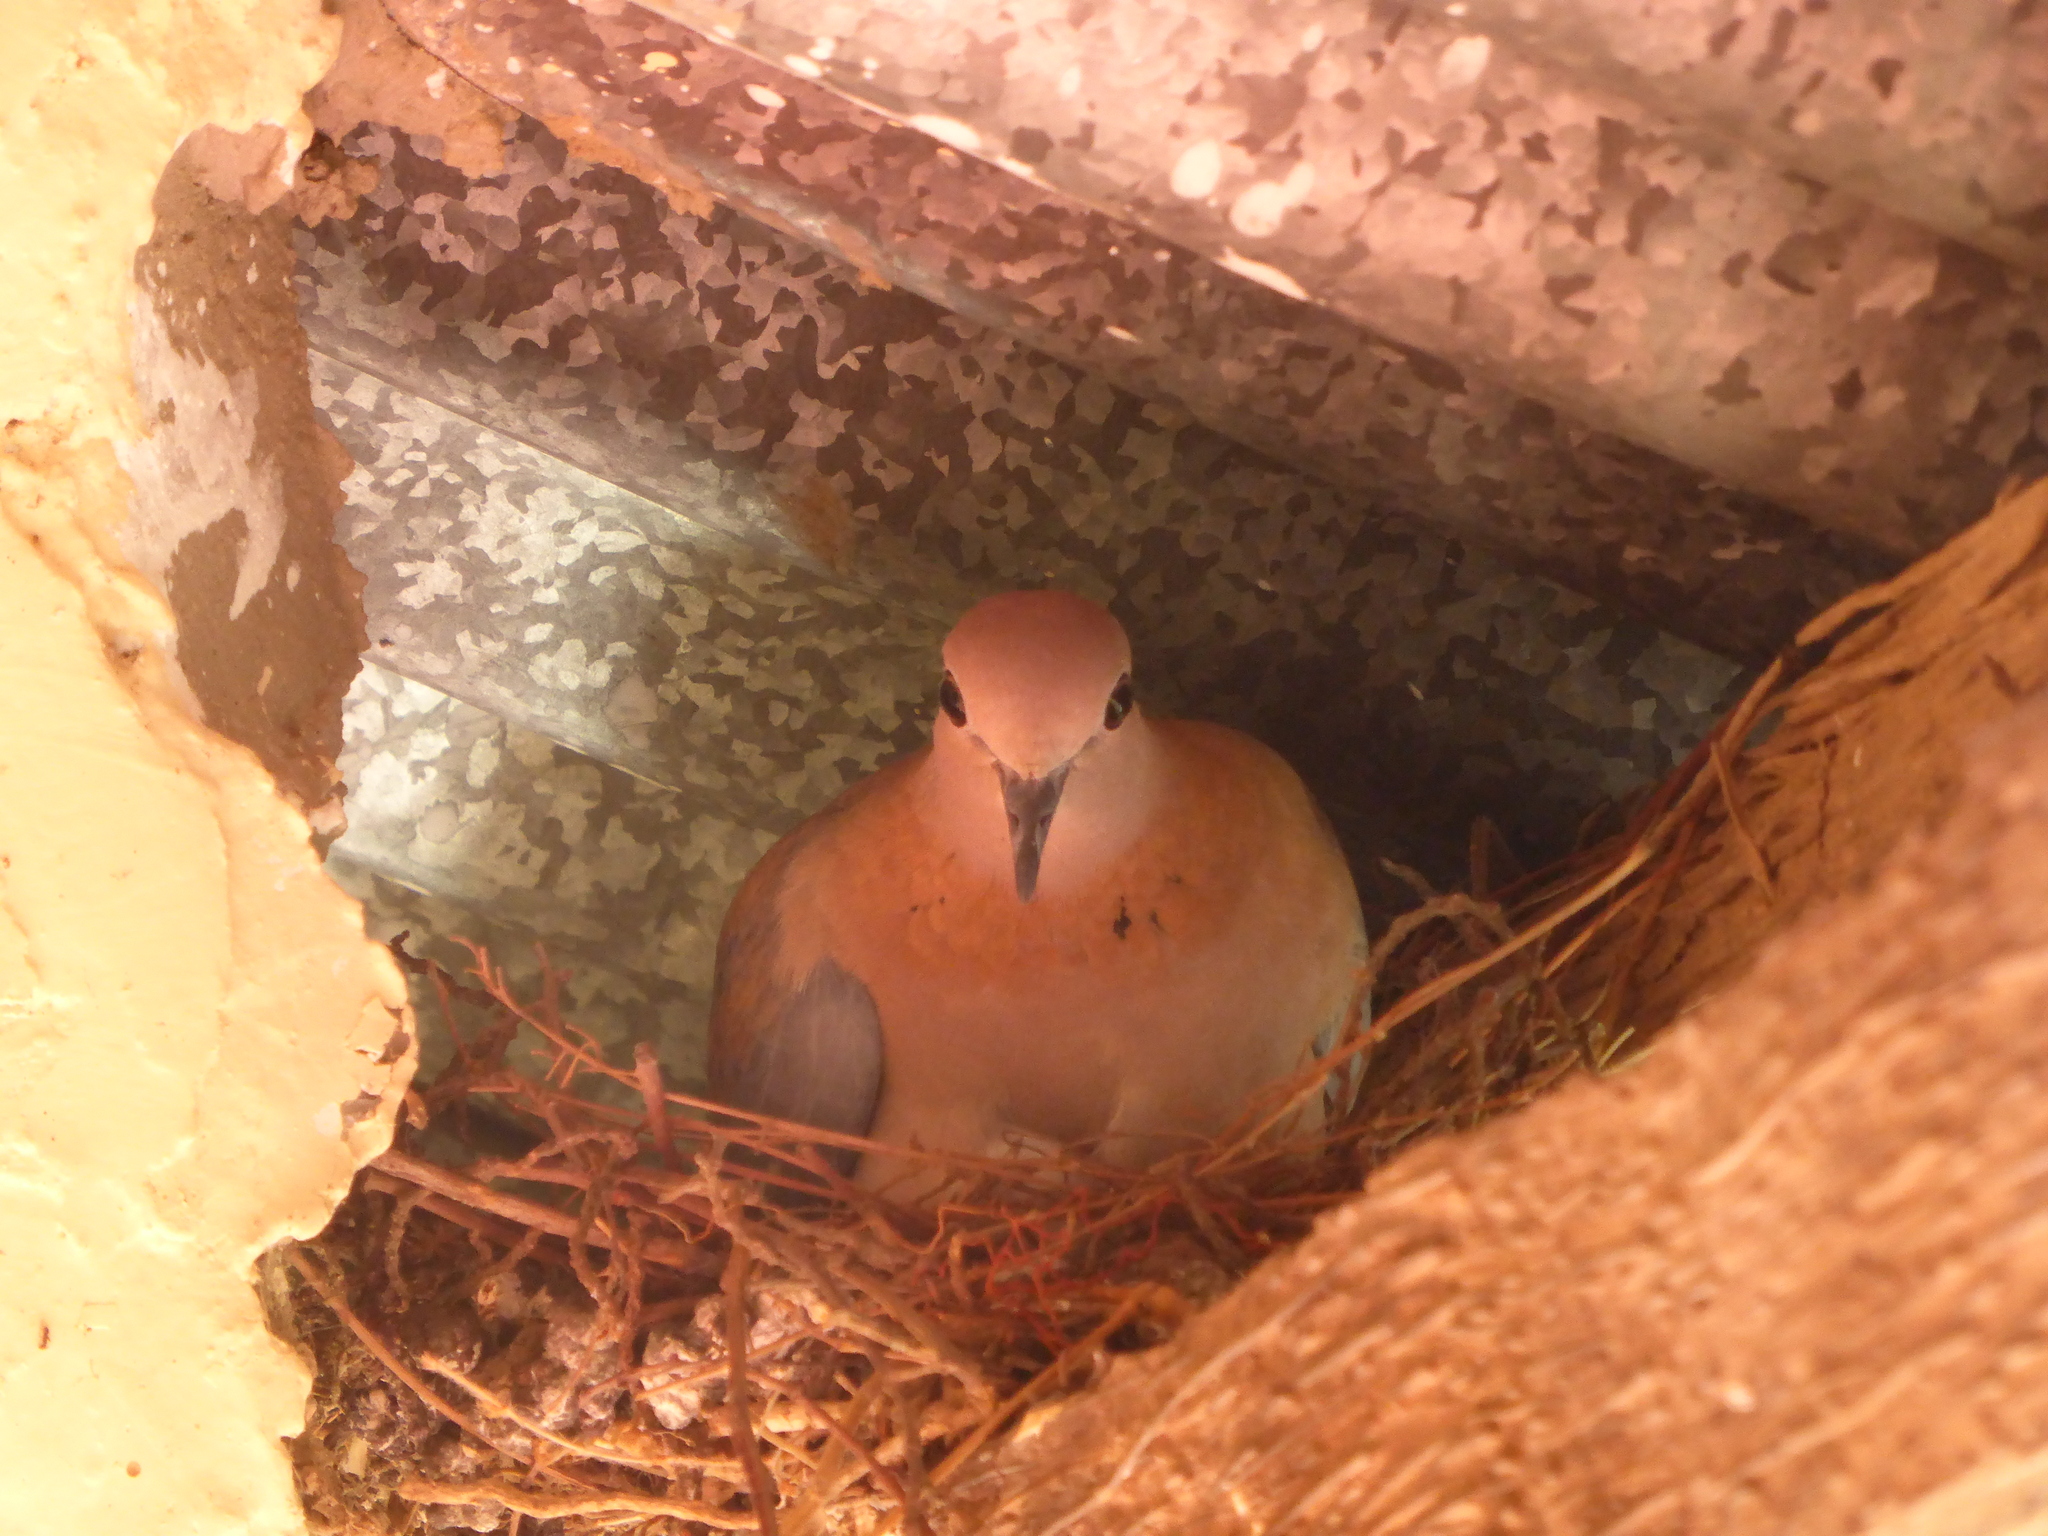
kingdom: Animalia
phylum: Chordata
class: Aves
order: Columbiformes
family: Columbidae
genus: Spilopelia
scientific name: Spilopelia senegalensis
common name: Laughing dove
